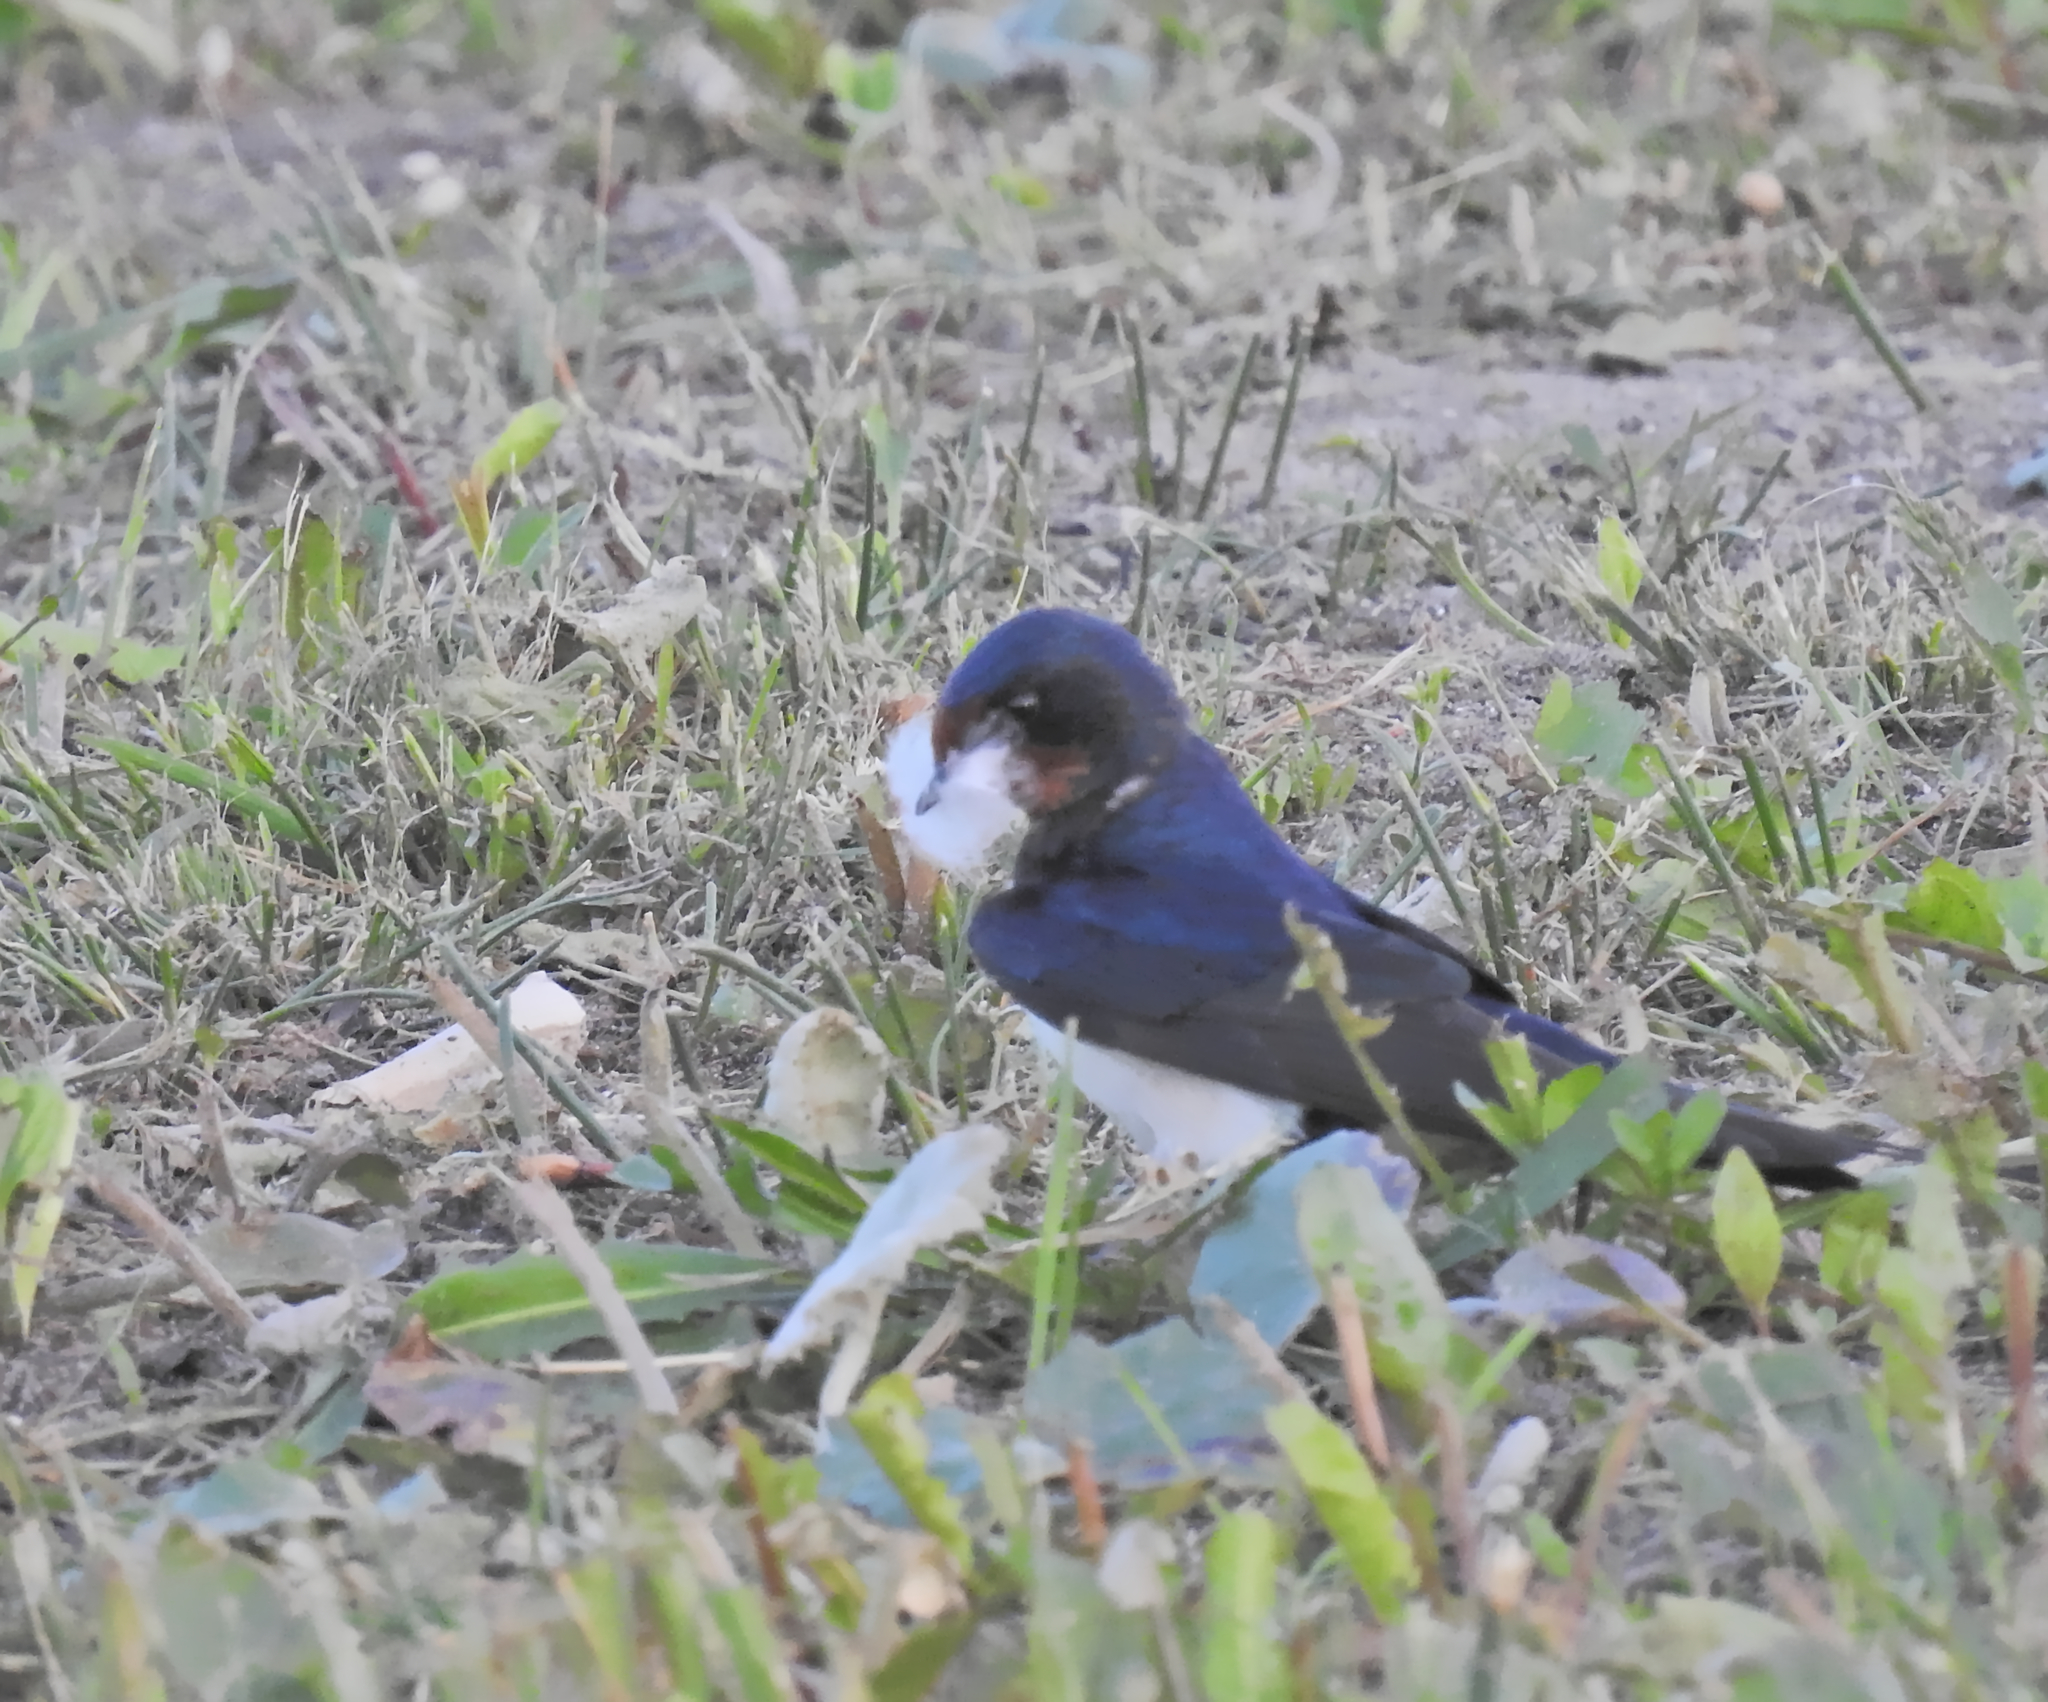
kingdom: Animalia
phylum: Chordata
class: Aves
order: Passeriformes
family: Hirundinidae
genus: Hirundo
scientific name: Hirundo rustica
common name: Barn swallow
